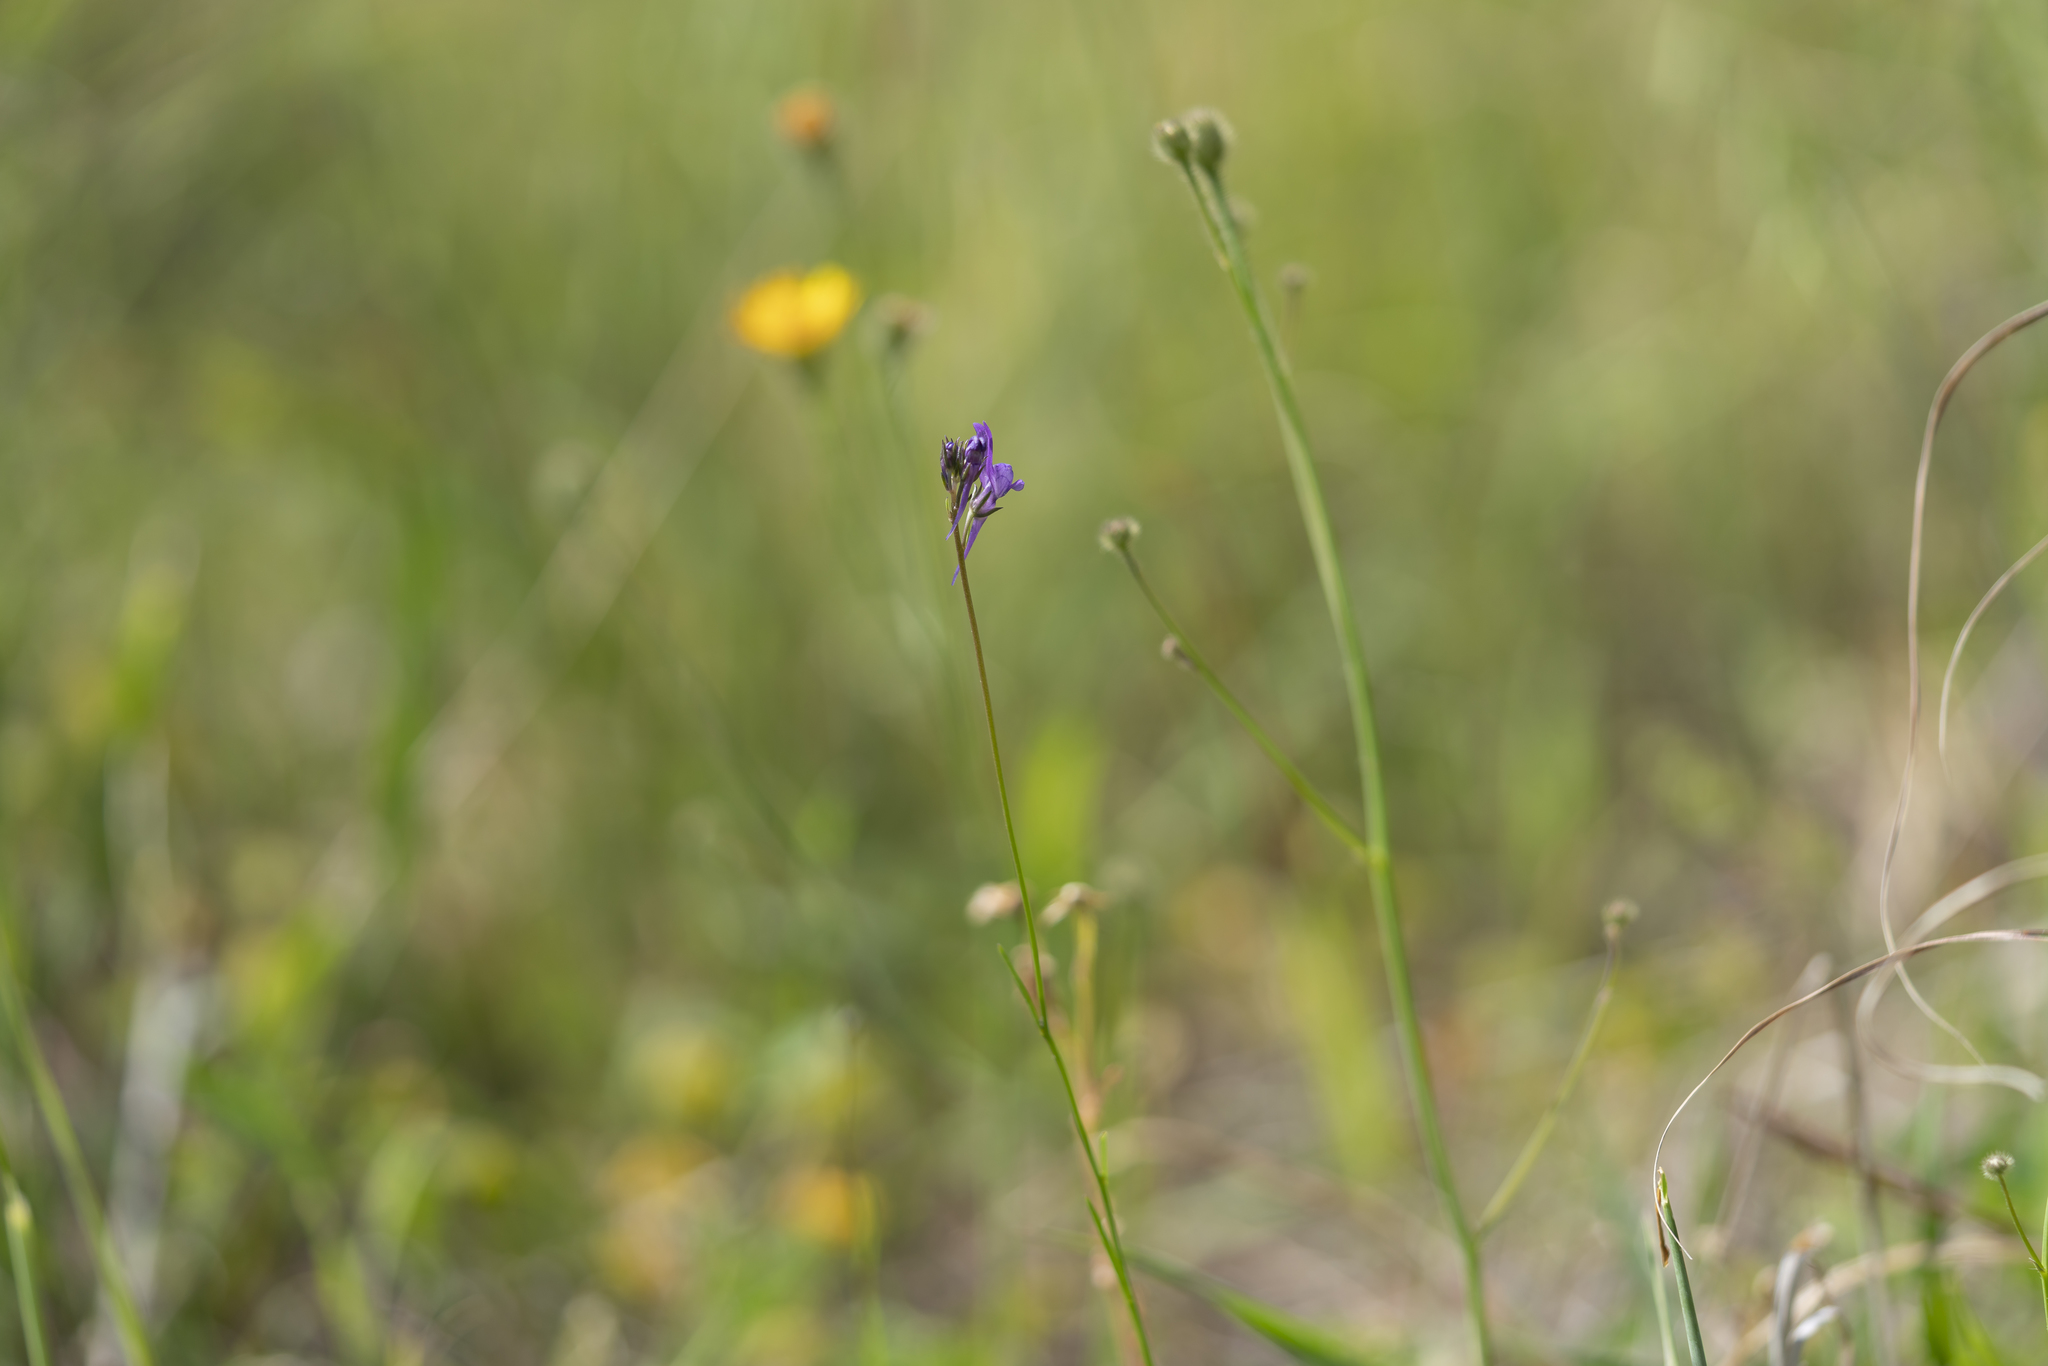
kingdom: Plantae
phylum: Tracheophyta
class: Magnoliopsida
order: Lamiales
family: Plantaginaceae
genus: Linaria
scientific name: Linaria pelisseriana
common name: Jersey toadflax
